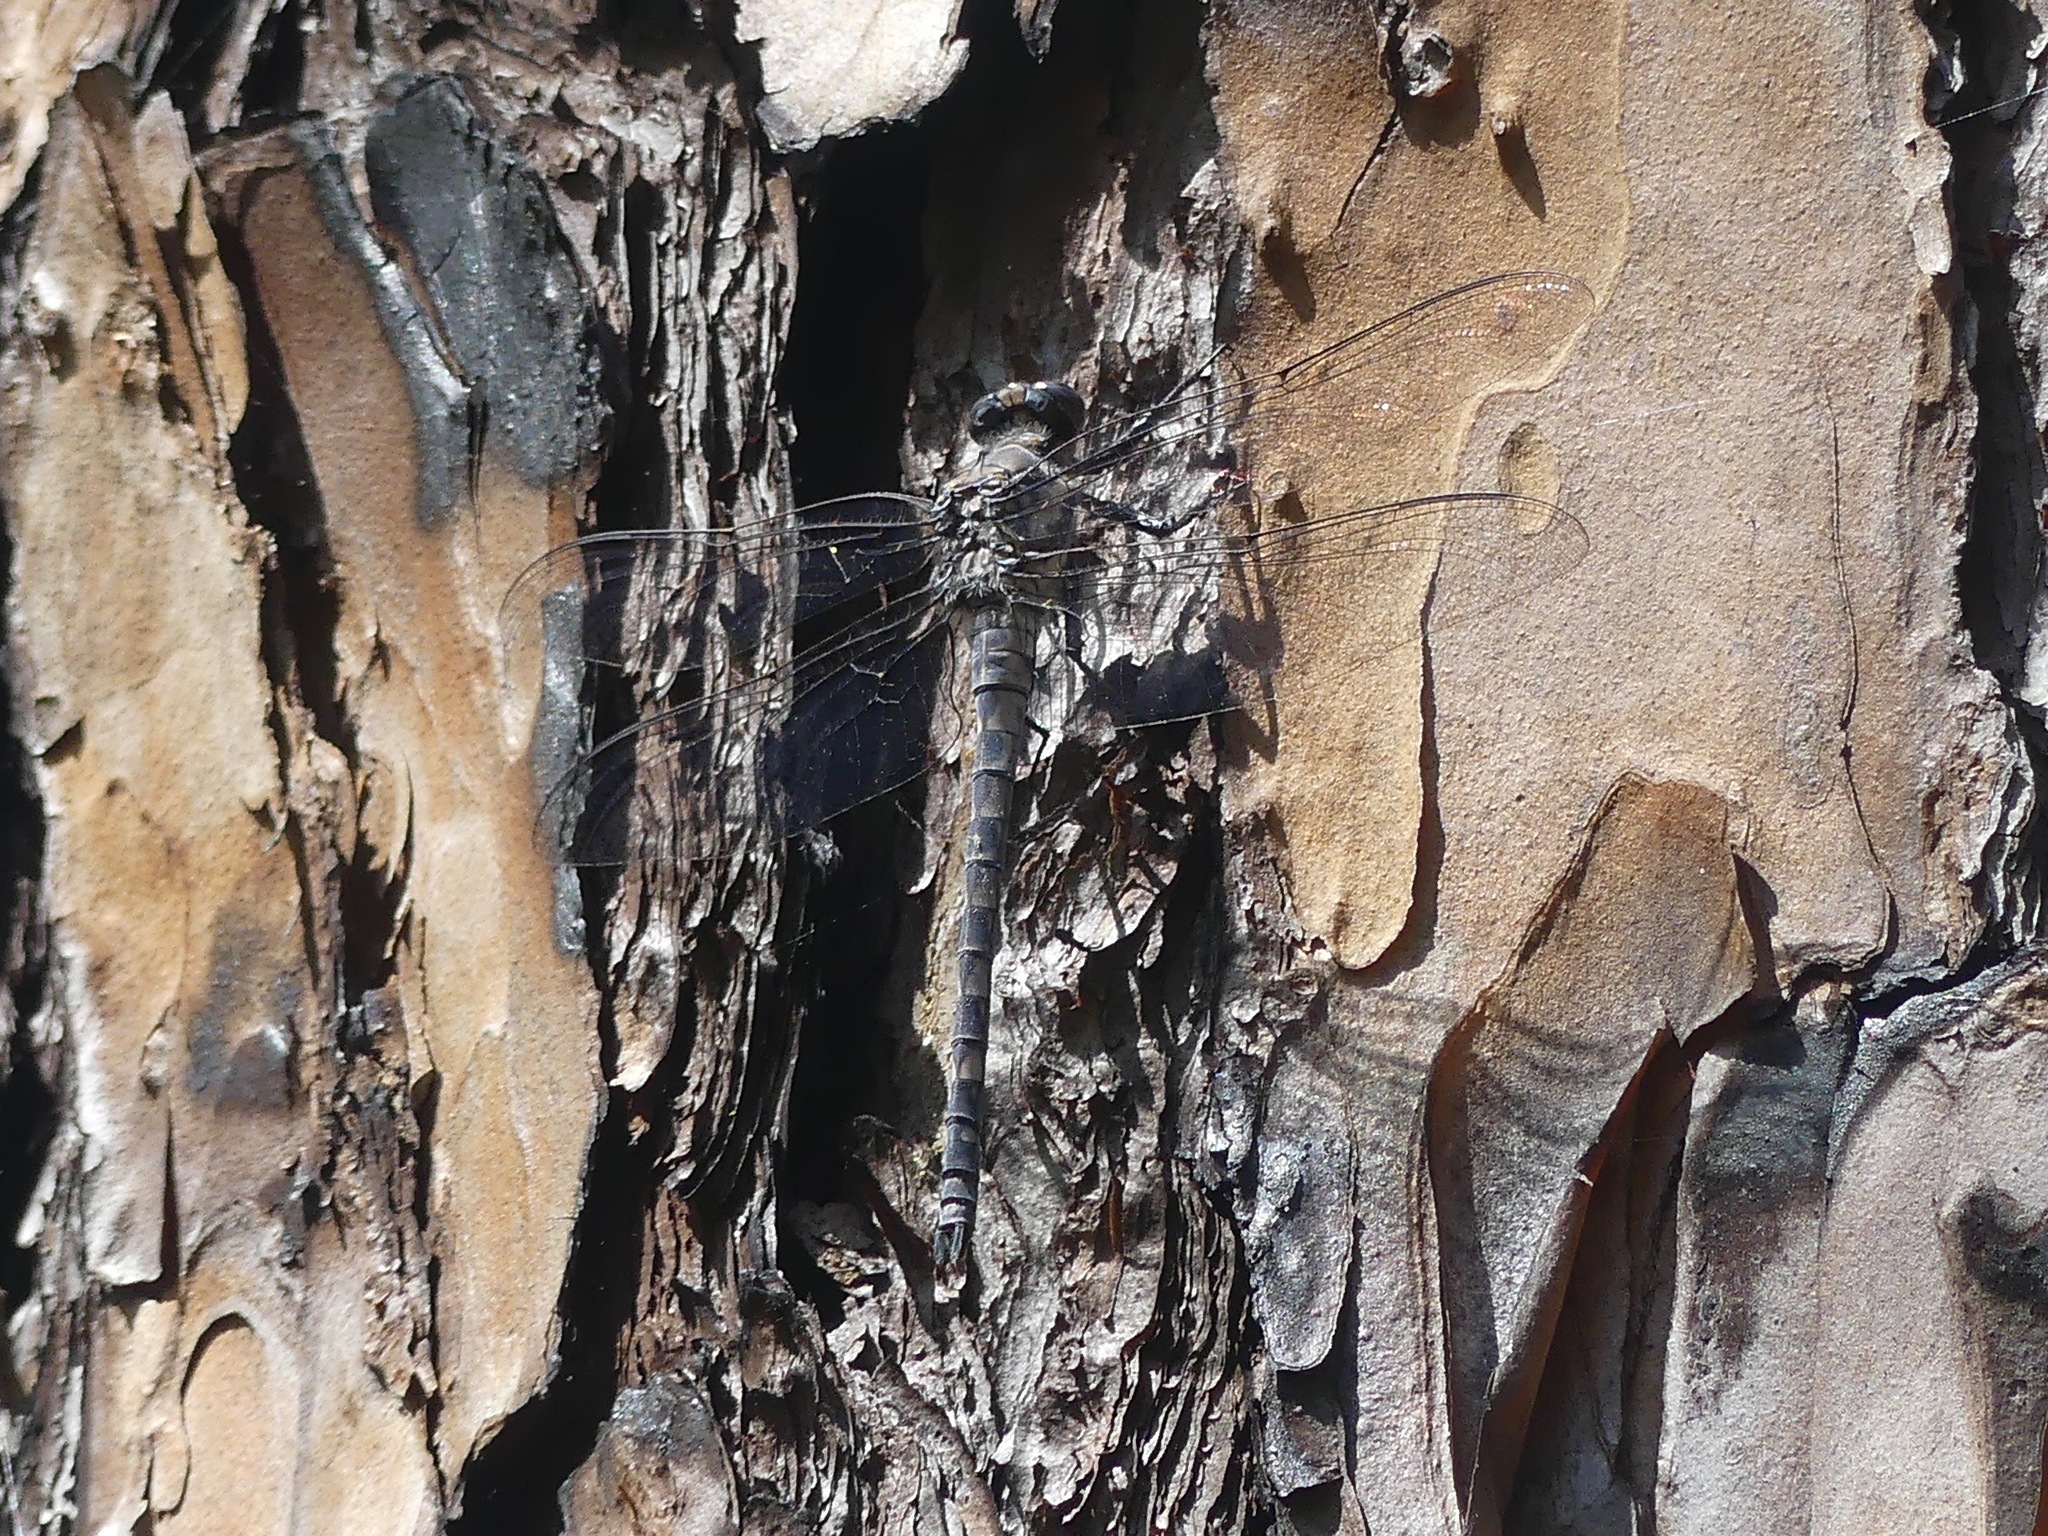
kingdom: Animalia
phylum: Arthropoda
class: Insecta
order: Odonata
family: Petaluridae
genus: Tachopteryx
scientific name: Tachopteryx thoreyi
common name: Gray petaltail
